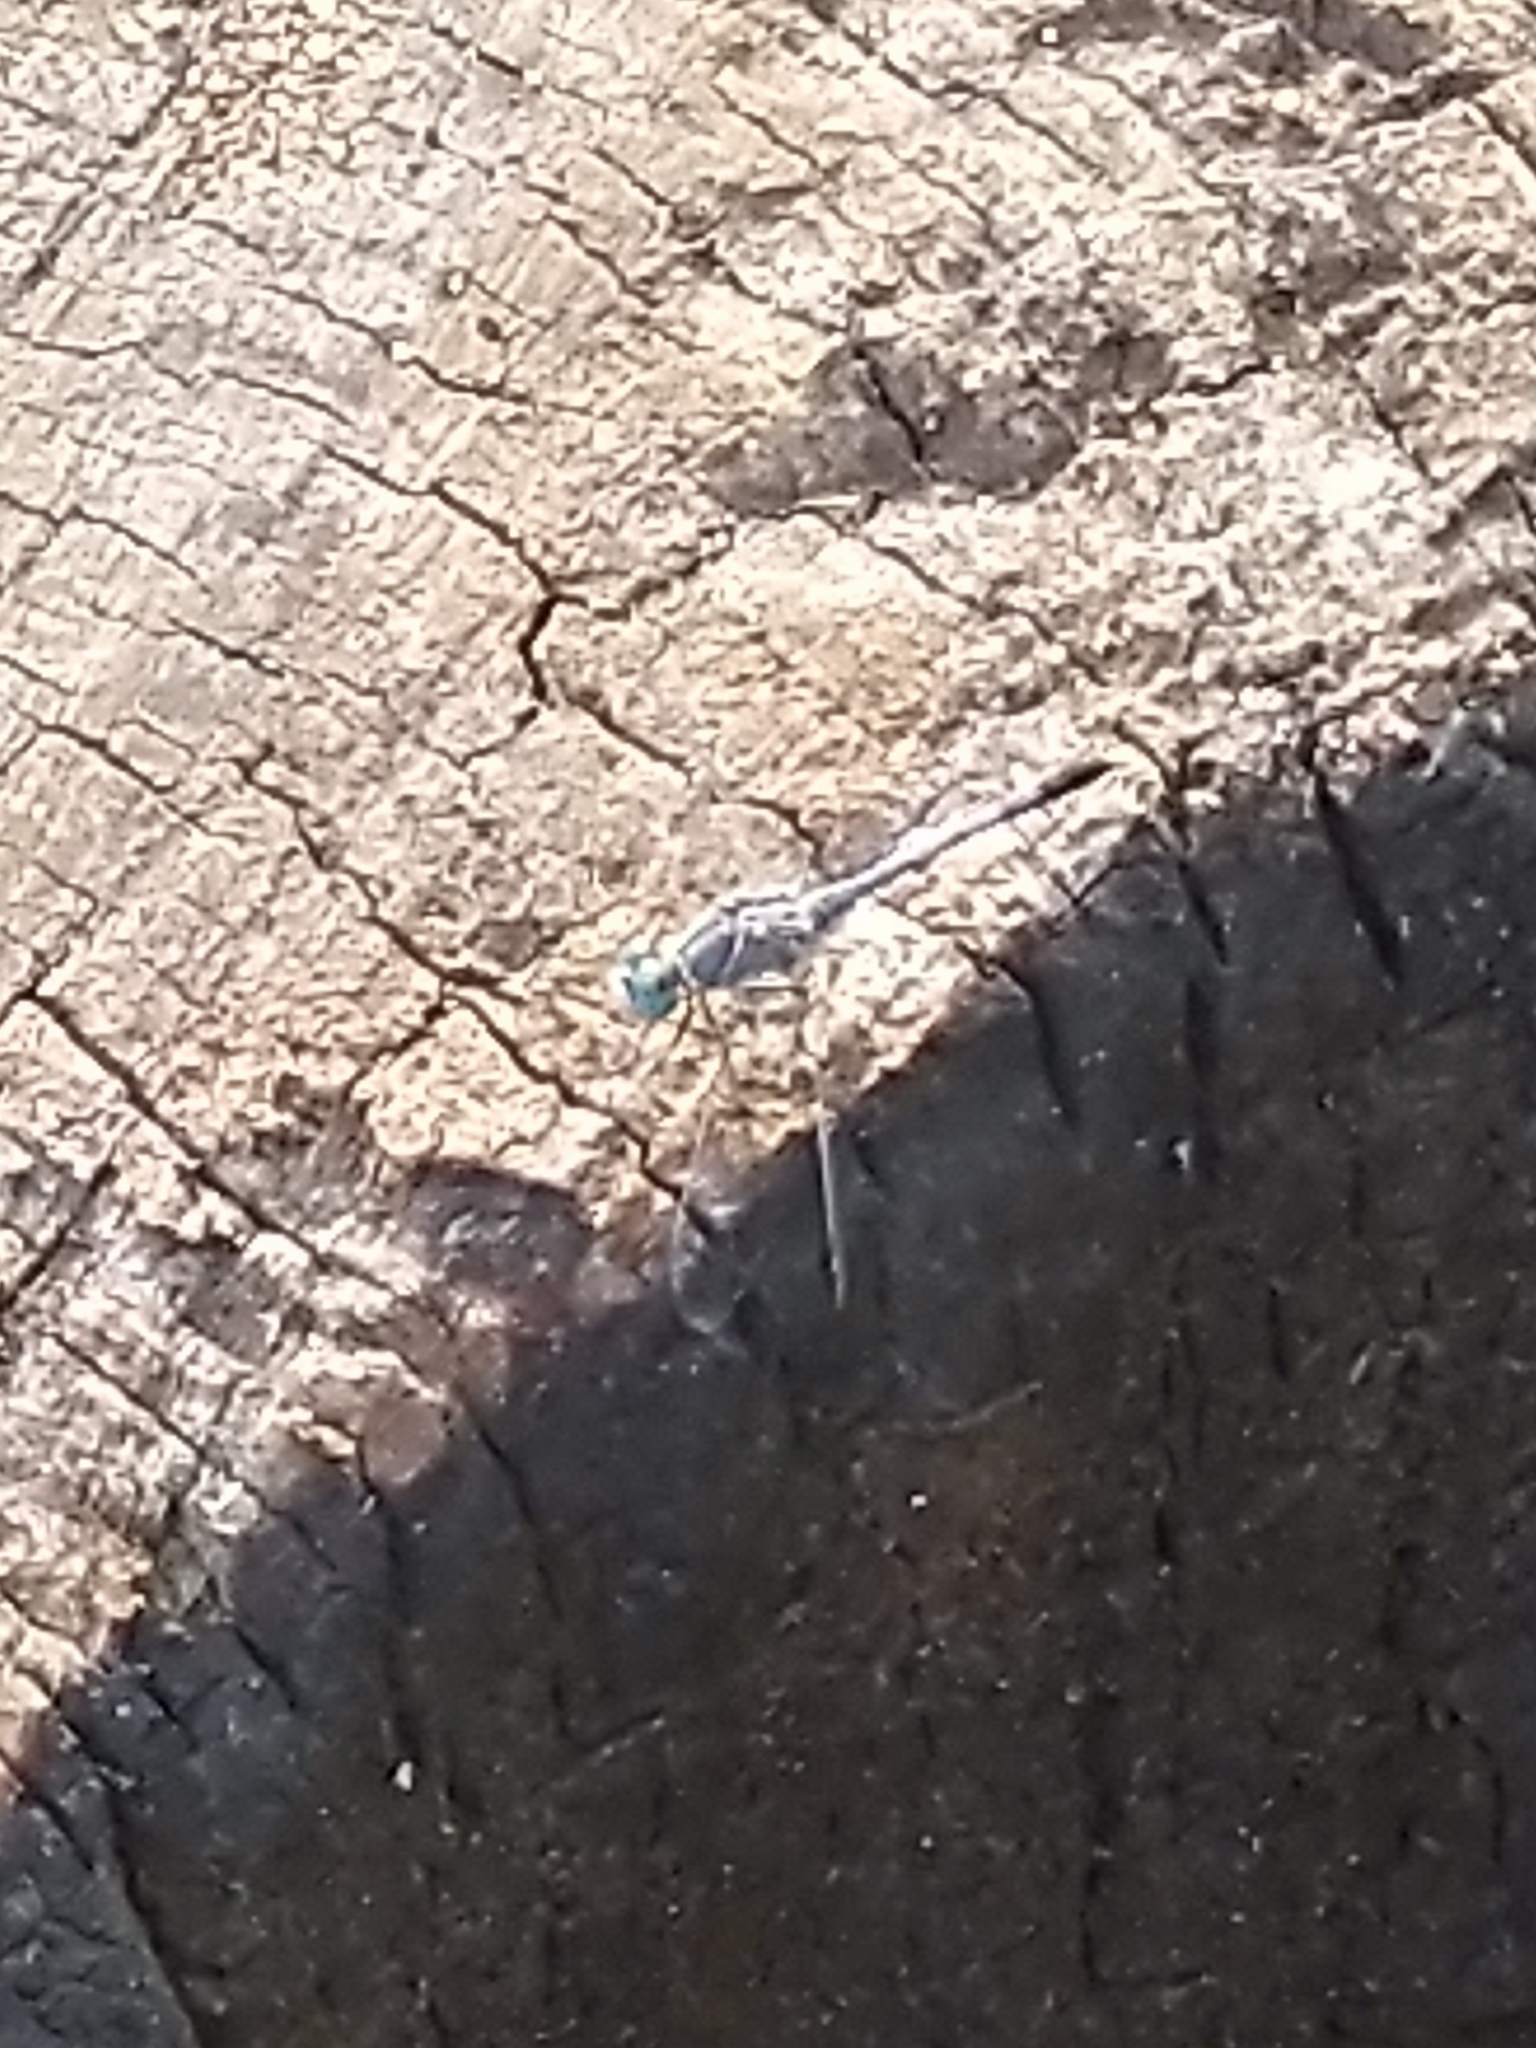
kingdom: Animalia
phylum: Arthropoda
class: Insecta
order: Odonata
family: Libellulidae
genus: Diplacodes
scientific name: Diplacodes trivialis
